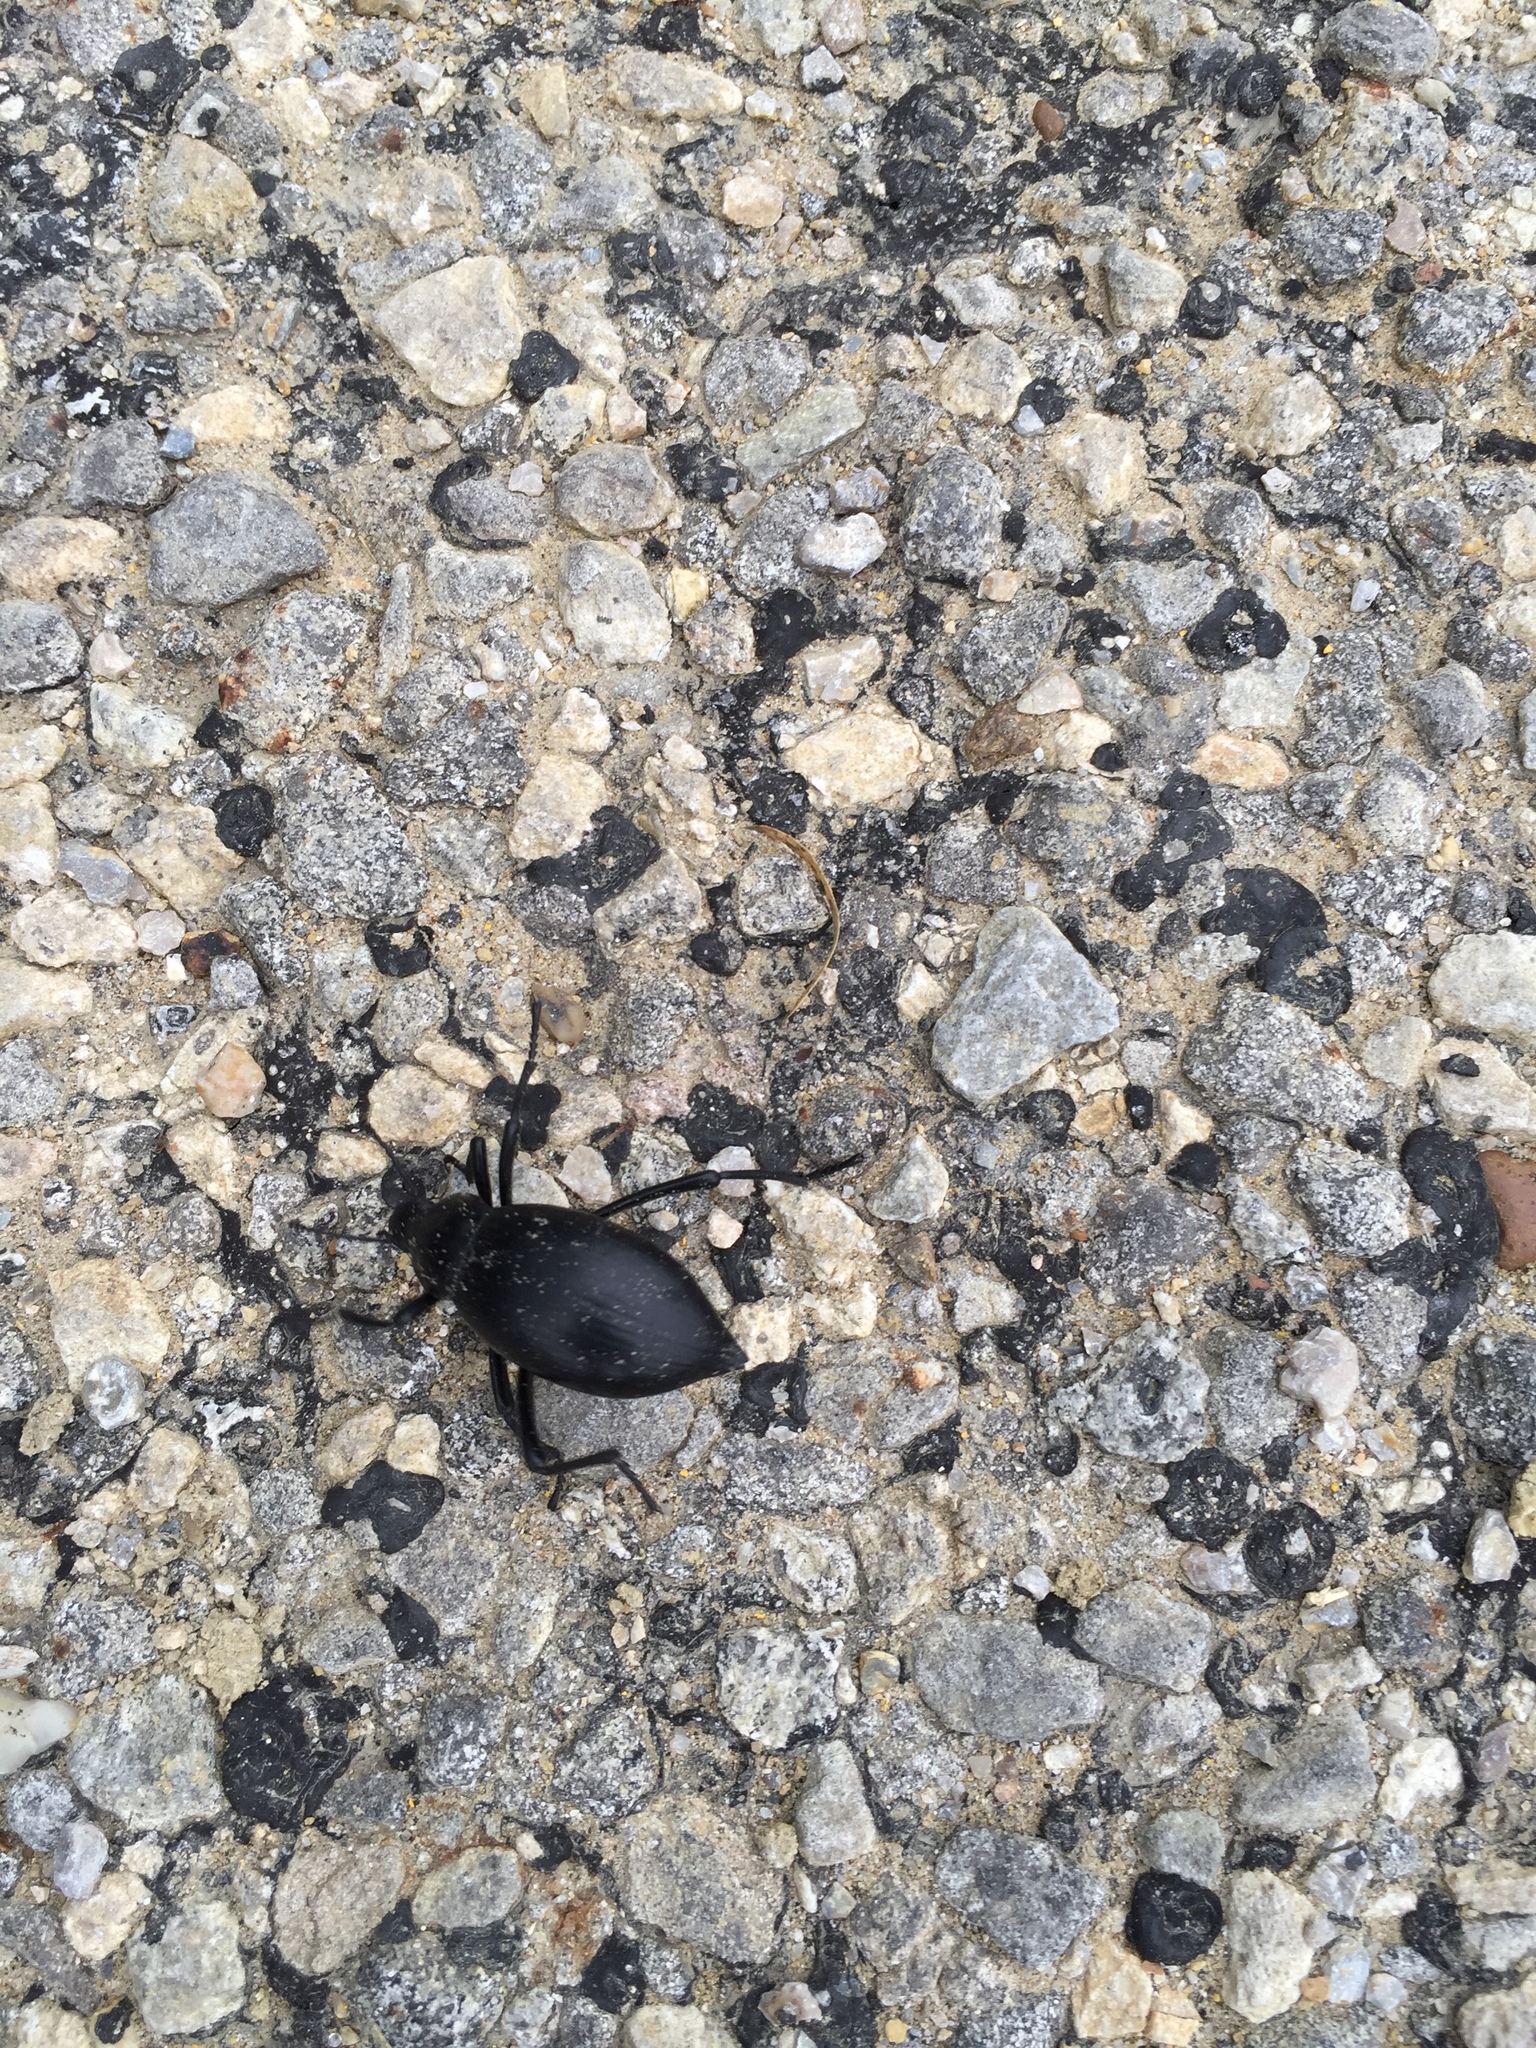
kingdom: Animalia
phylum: Arthropoda
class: Insecta
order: Coleoptera
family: Tenebrionidae
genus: Eleodes
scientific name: Eleodes spinipes
